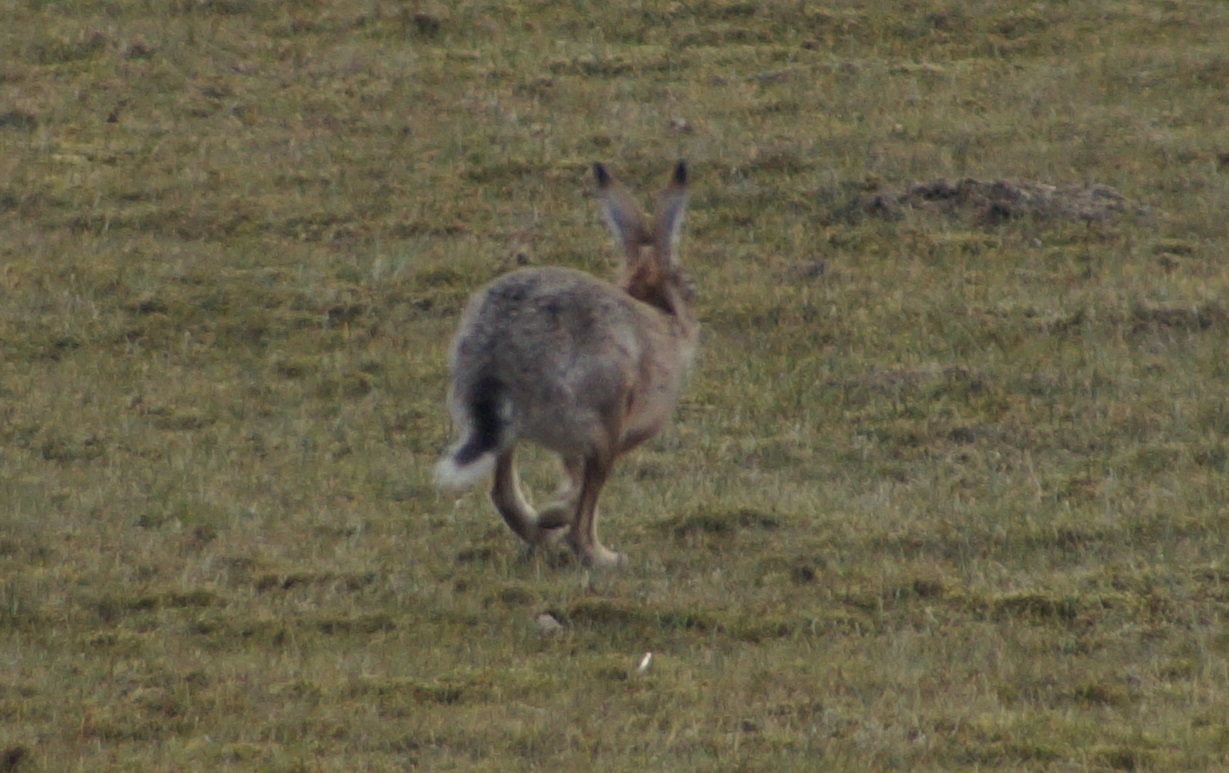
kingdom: Animalia
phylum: Chordata
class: Mammalia
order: Lagomorpha
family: Leporidae
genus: Lepus
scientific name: Lepus europaeus
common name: European hare
